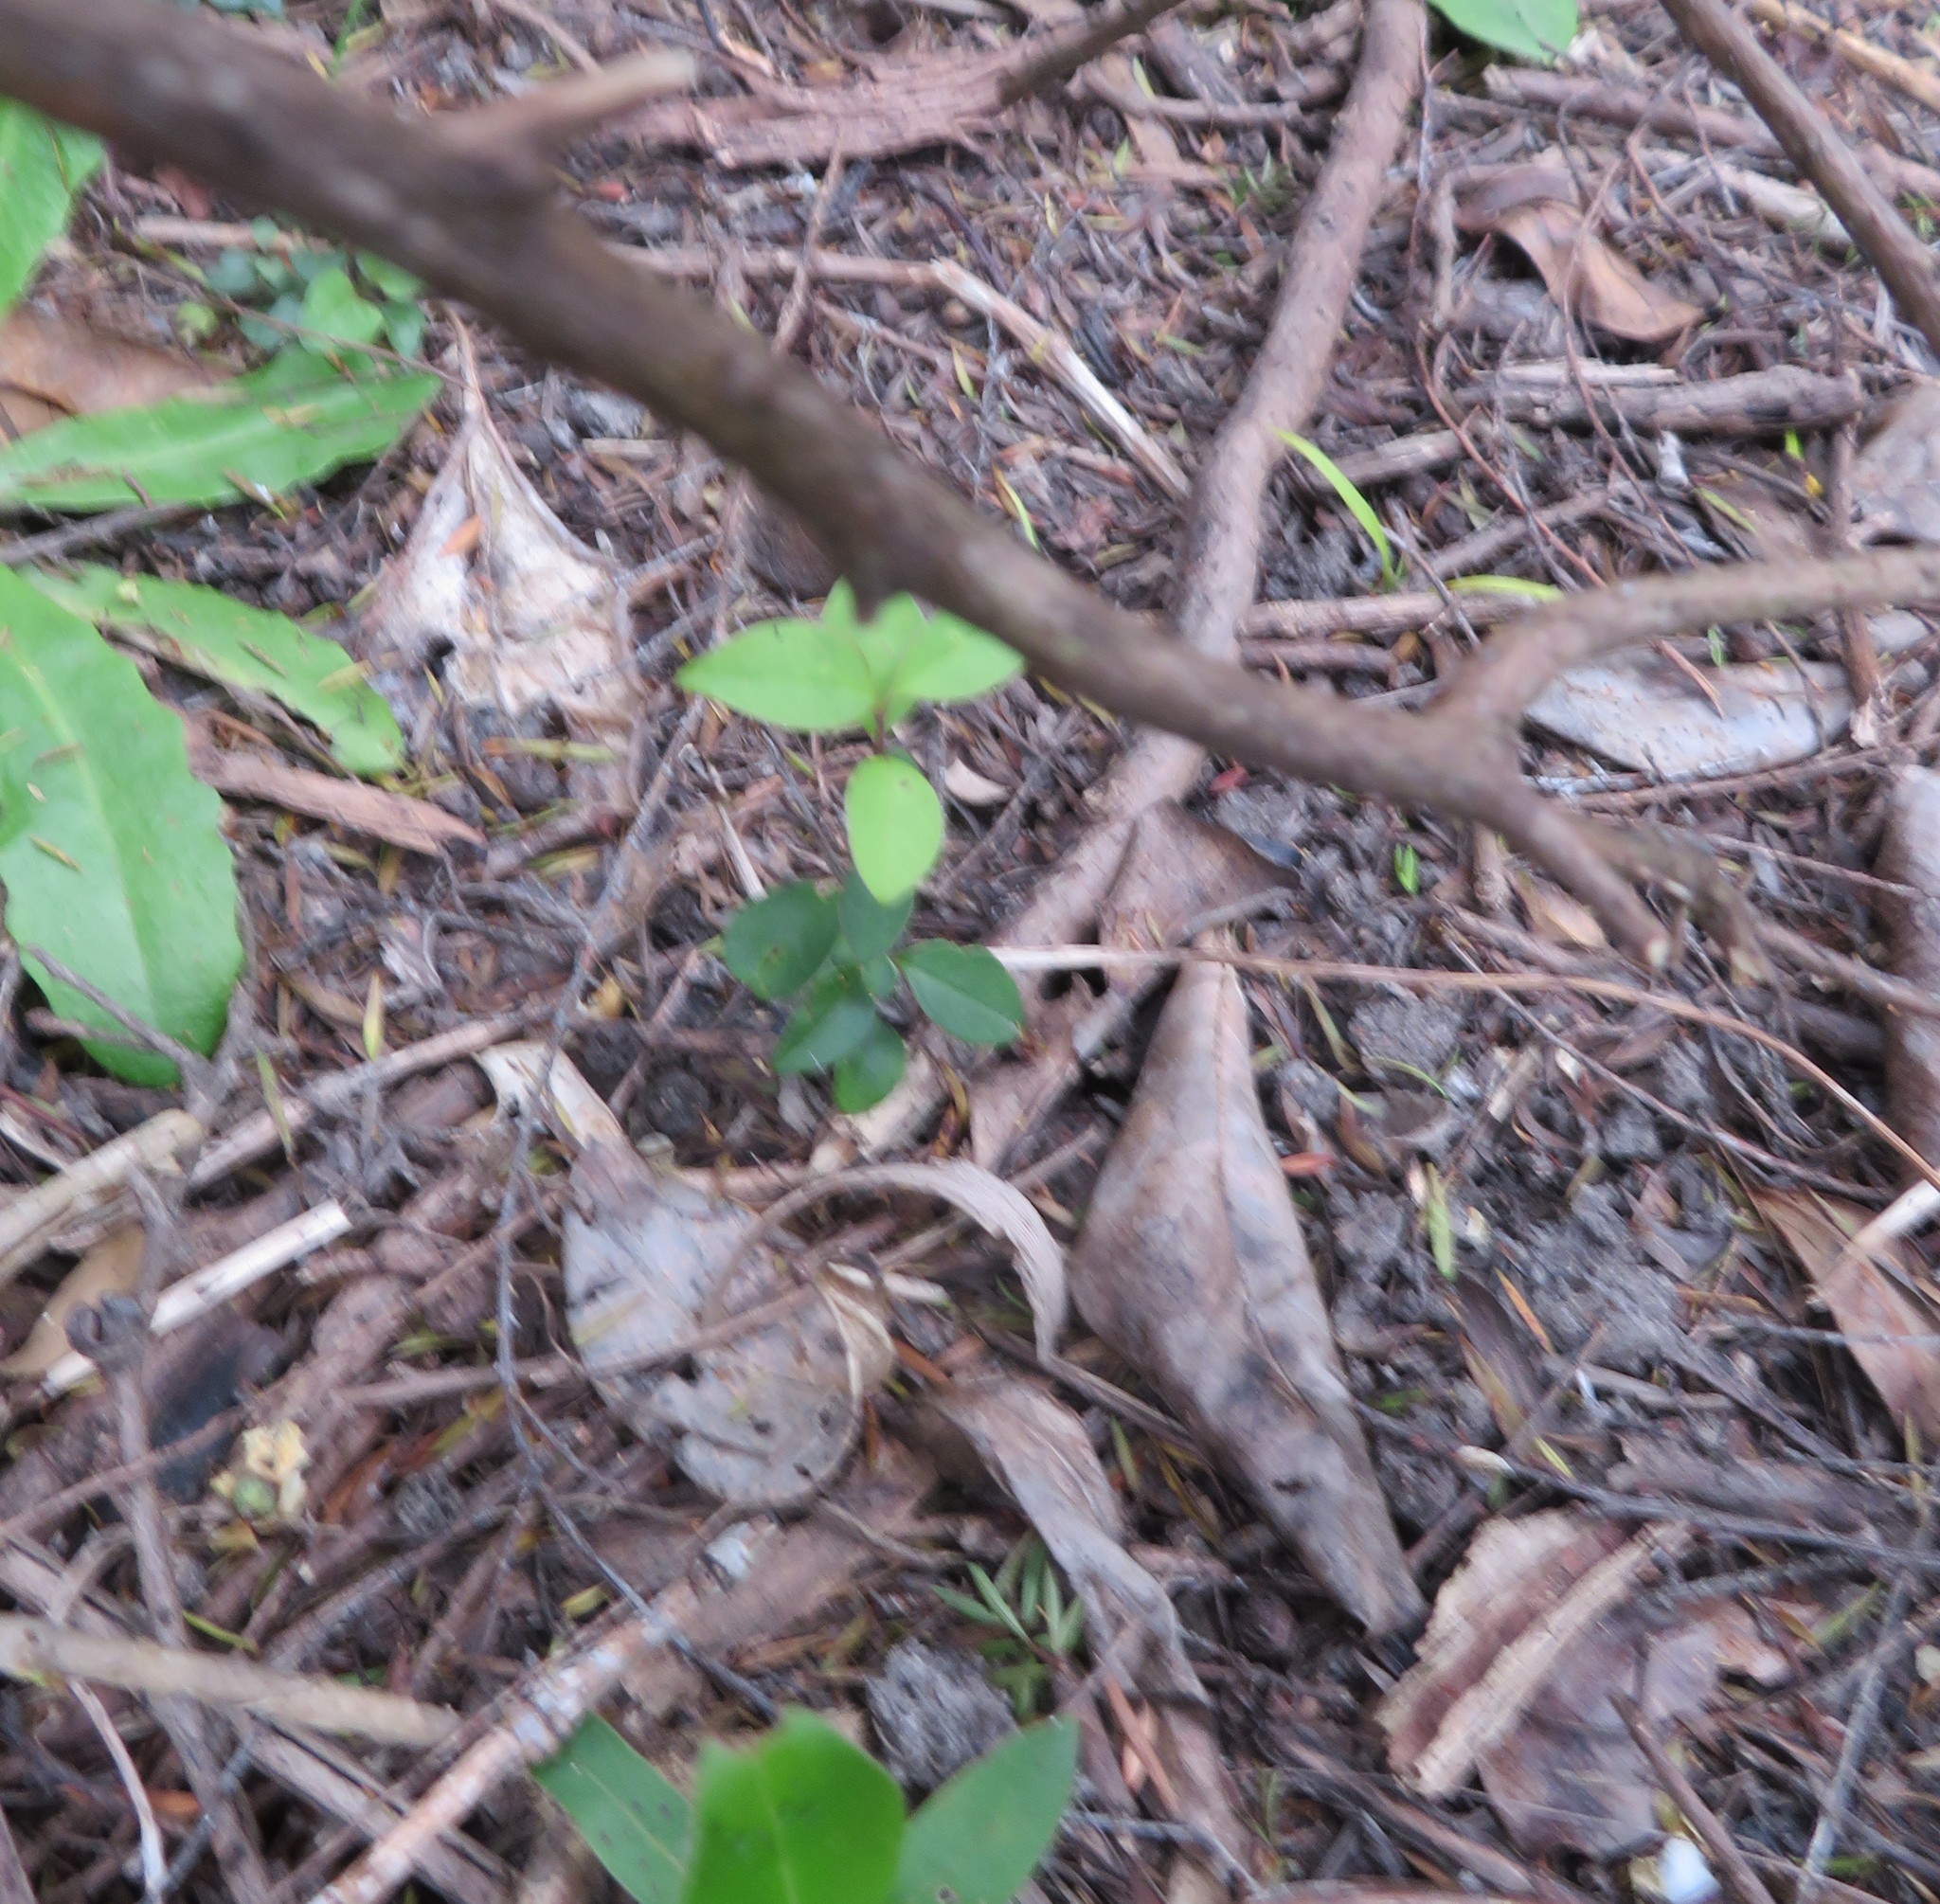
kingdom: Plantae
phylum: Tracheophyta
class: Magnoliopsida
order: Lamiales
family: Oleaceae
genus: Ligustrum
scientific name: Ligustrum lucidum
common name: Glossy privet
